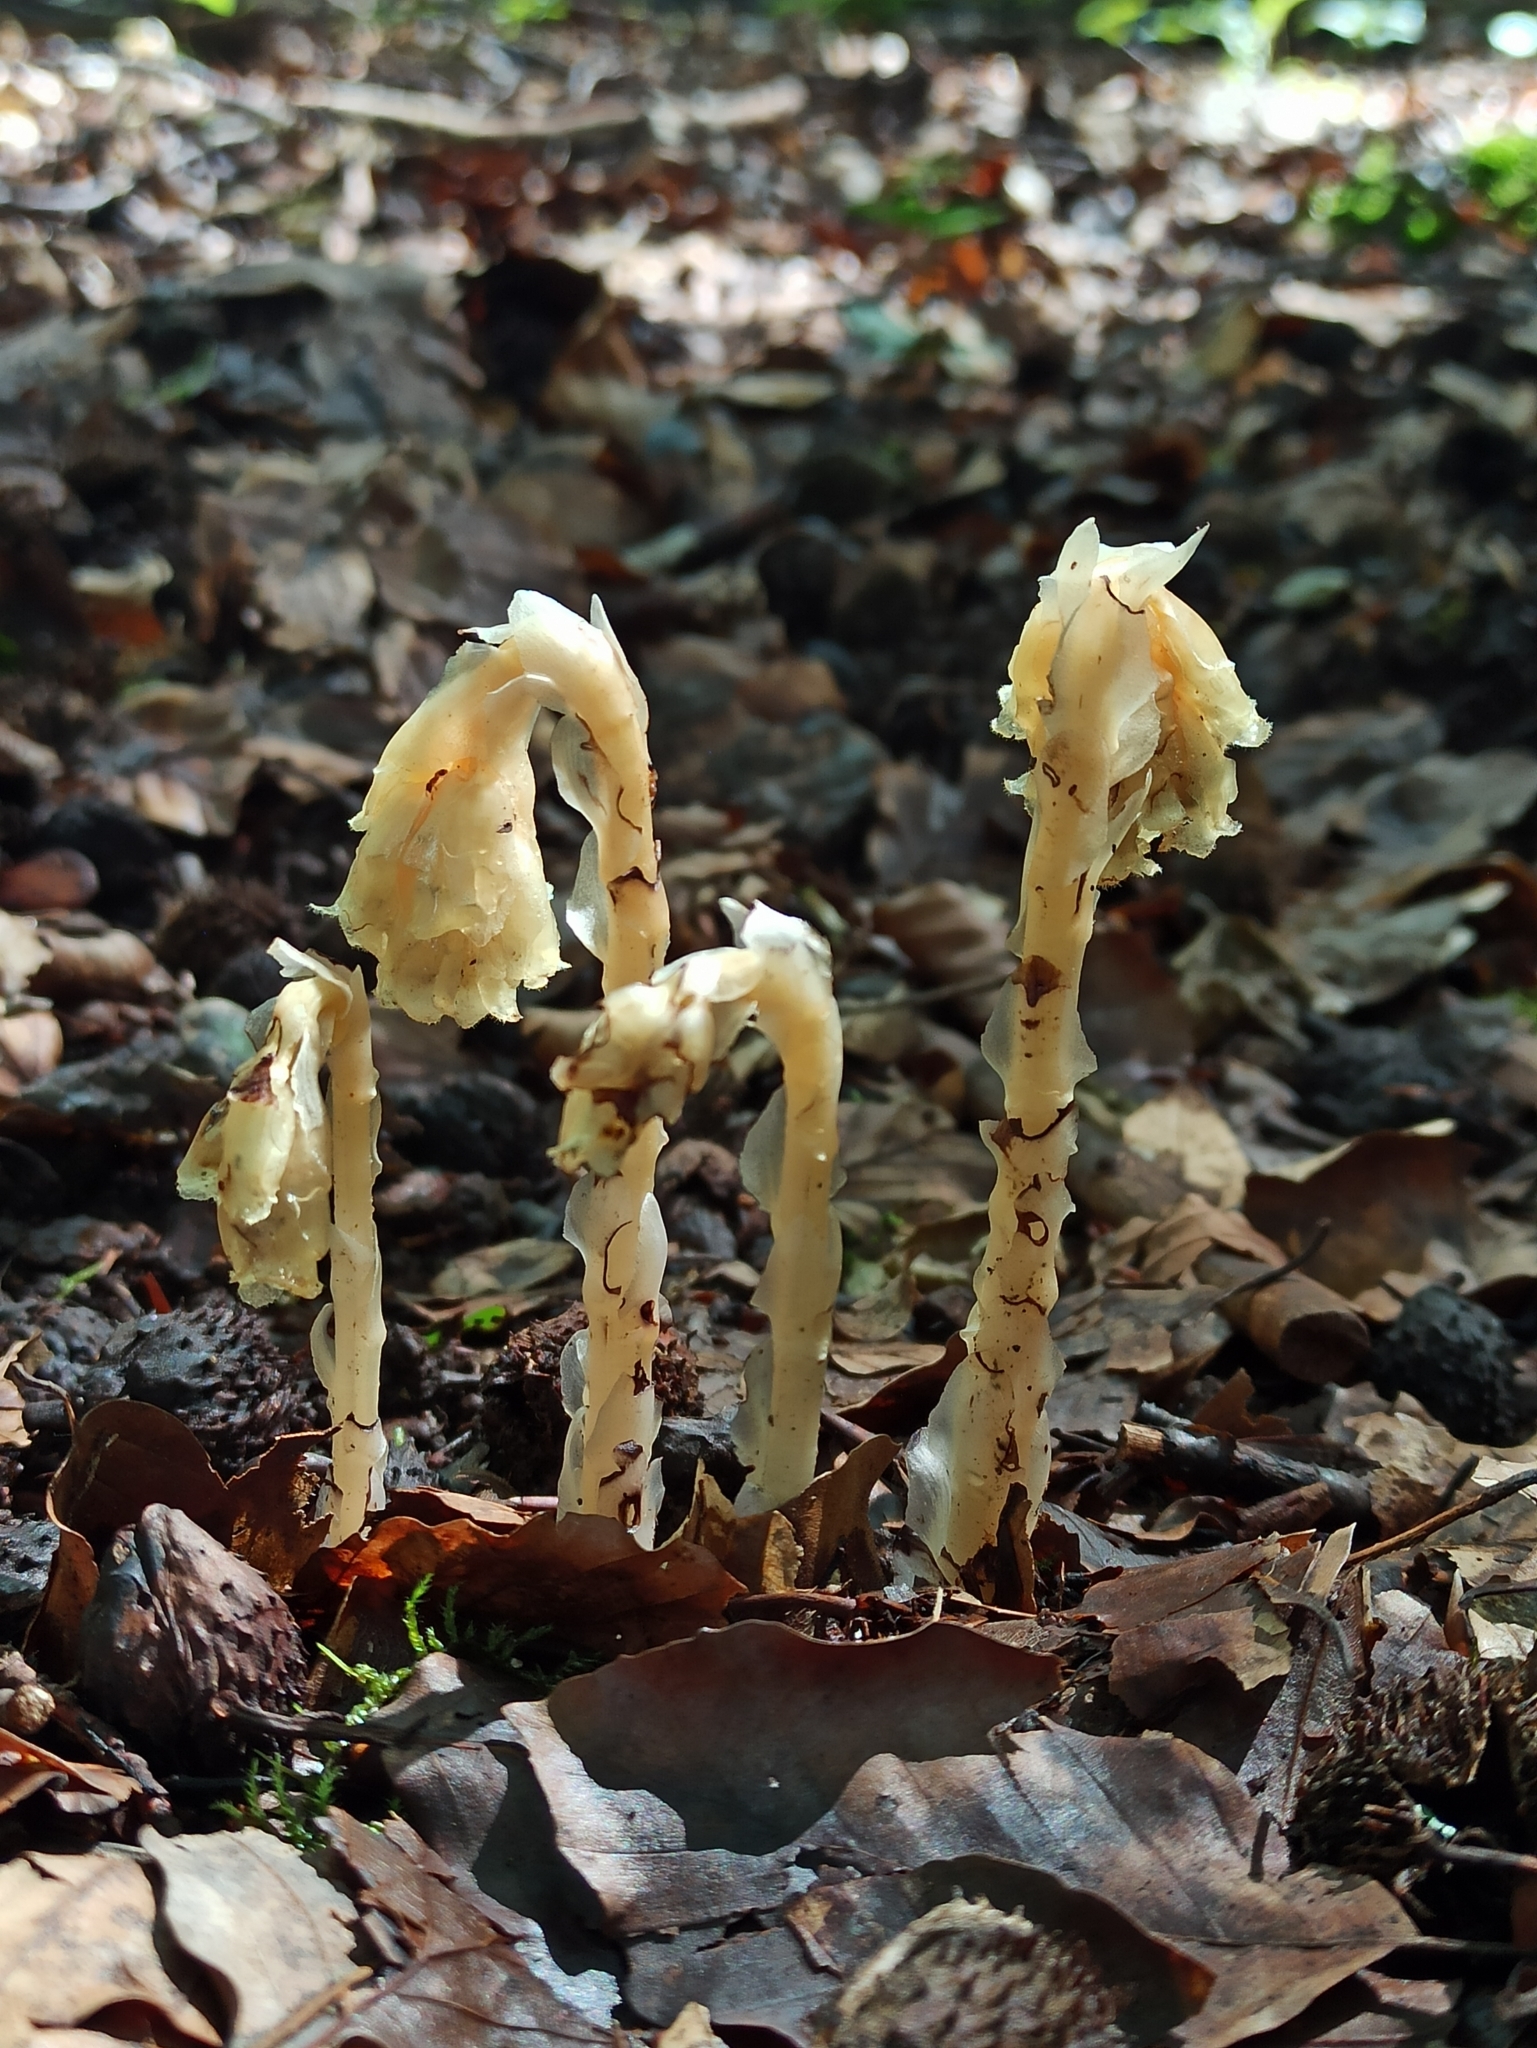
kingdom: Plantae
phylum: Tracheophyta
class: Magnoliopsida
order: Ericales
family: Ericaceae
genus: Hypopitys
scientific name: Hypopitys monotropa
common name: Yellow bird's-nest
